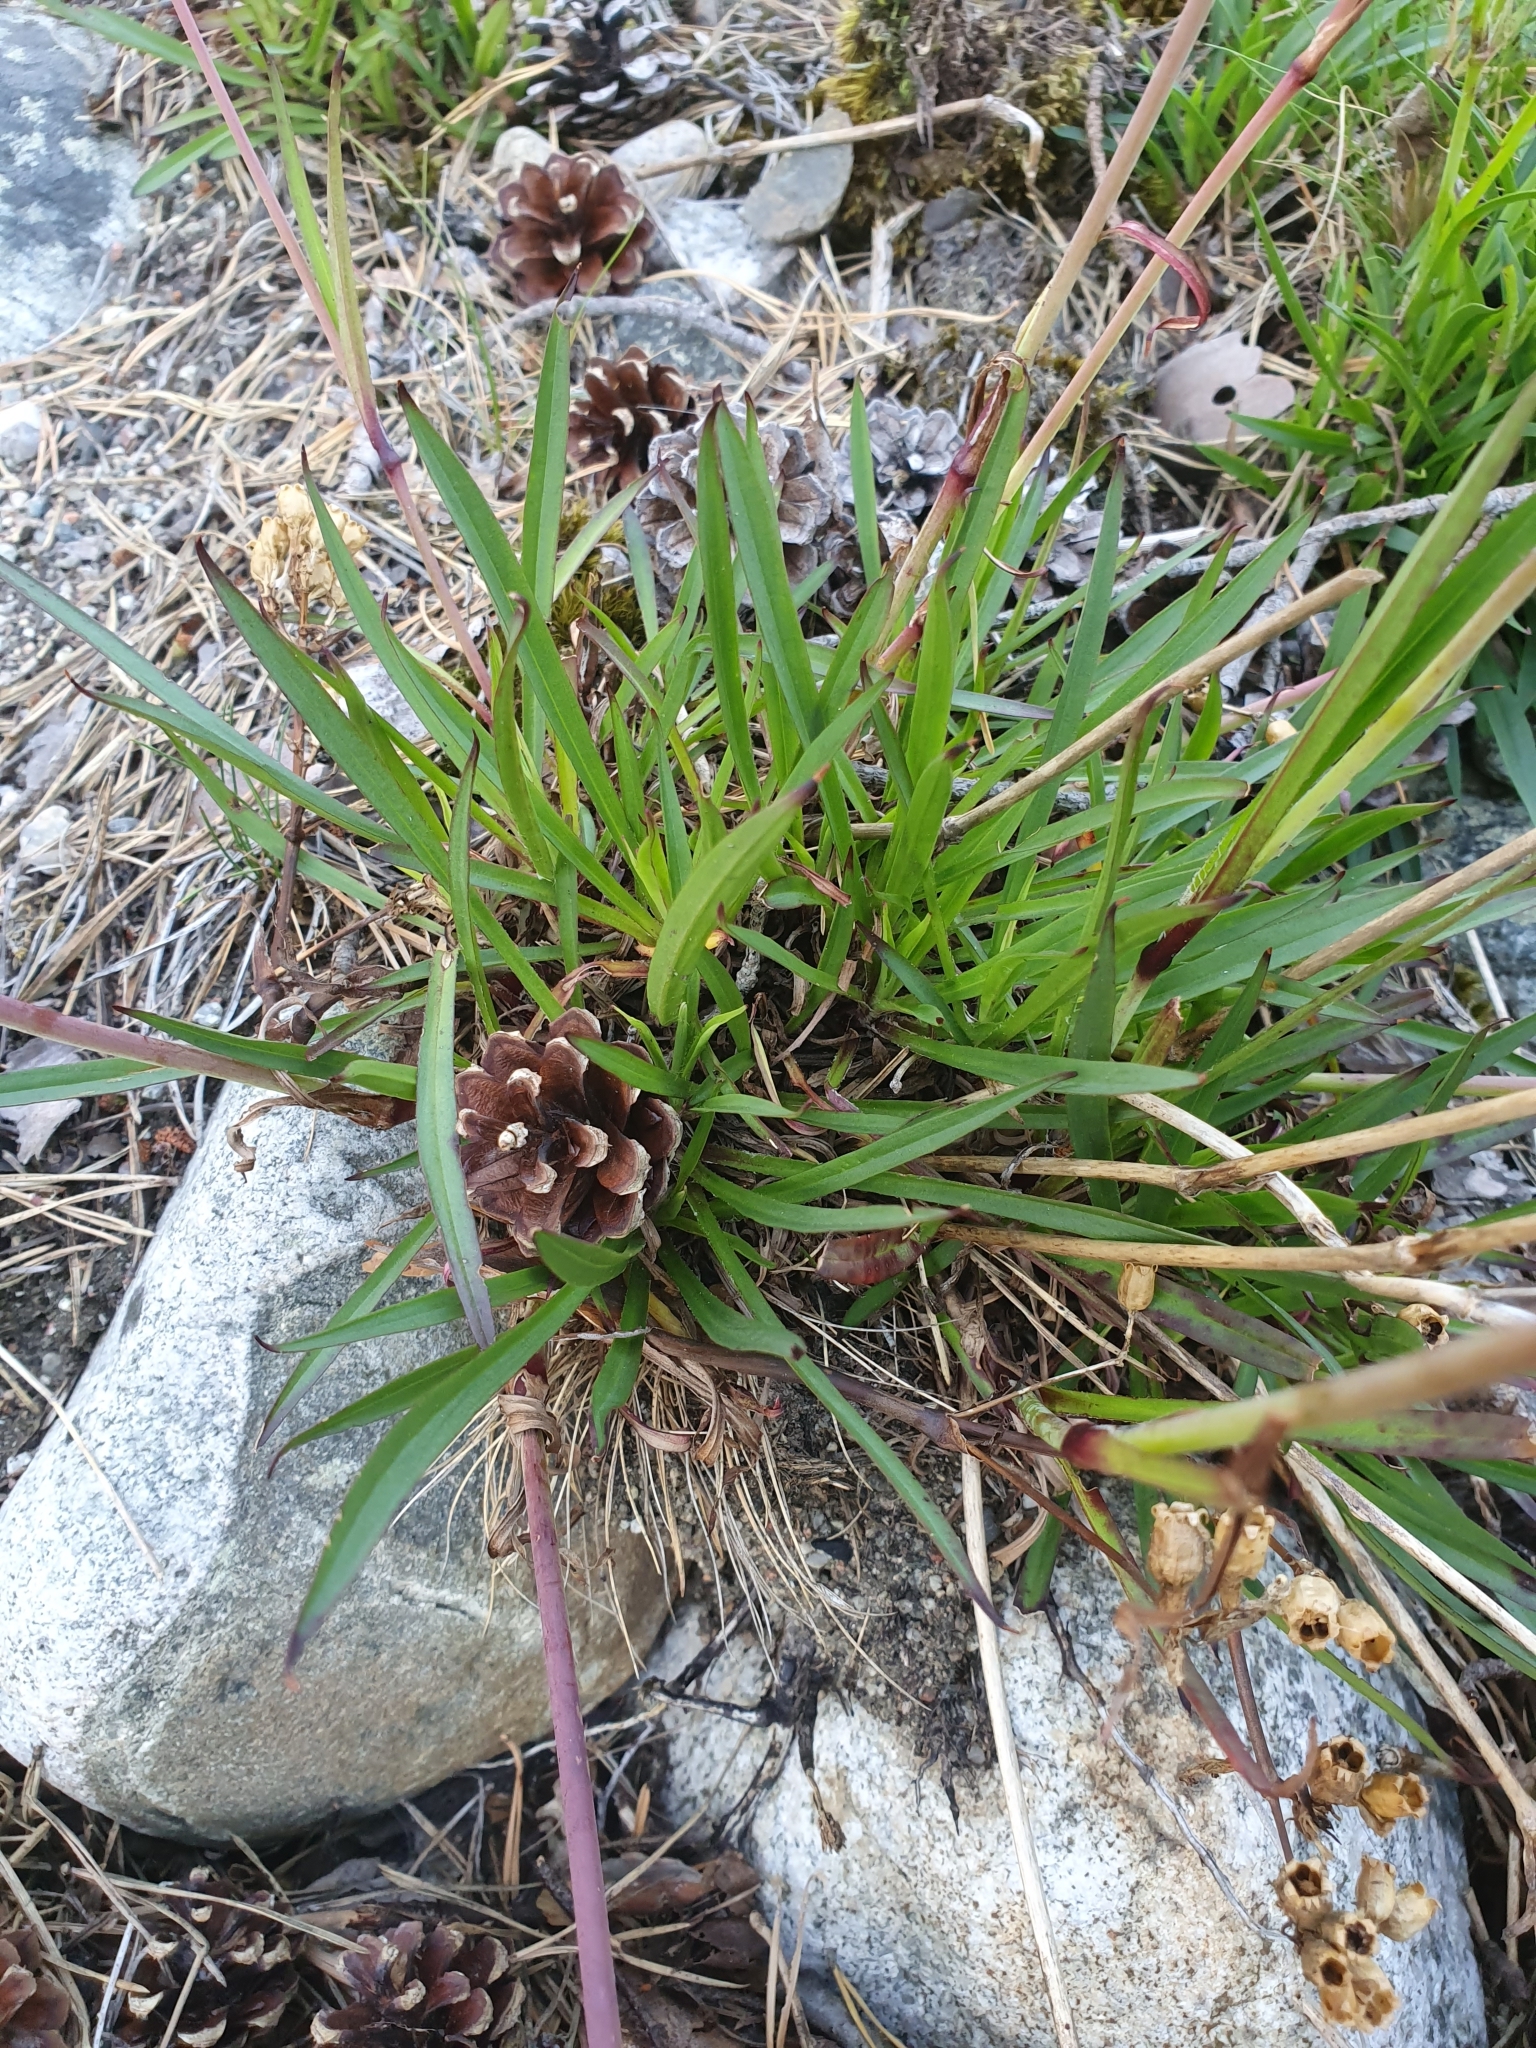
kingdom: Plantae
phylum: Tracheophyta
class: Magnoliopsida
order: Caryophyllales
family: Caryophyllaceae
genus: Viscaria
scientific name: Viscaria vulgaris
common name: Clammy campion
